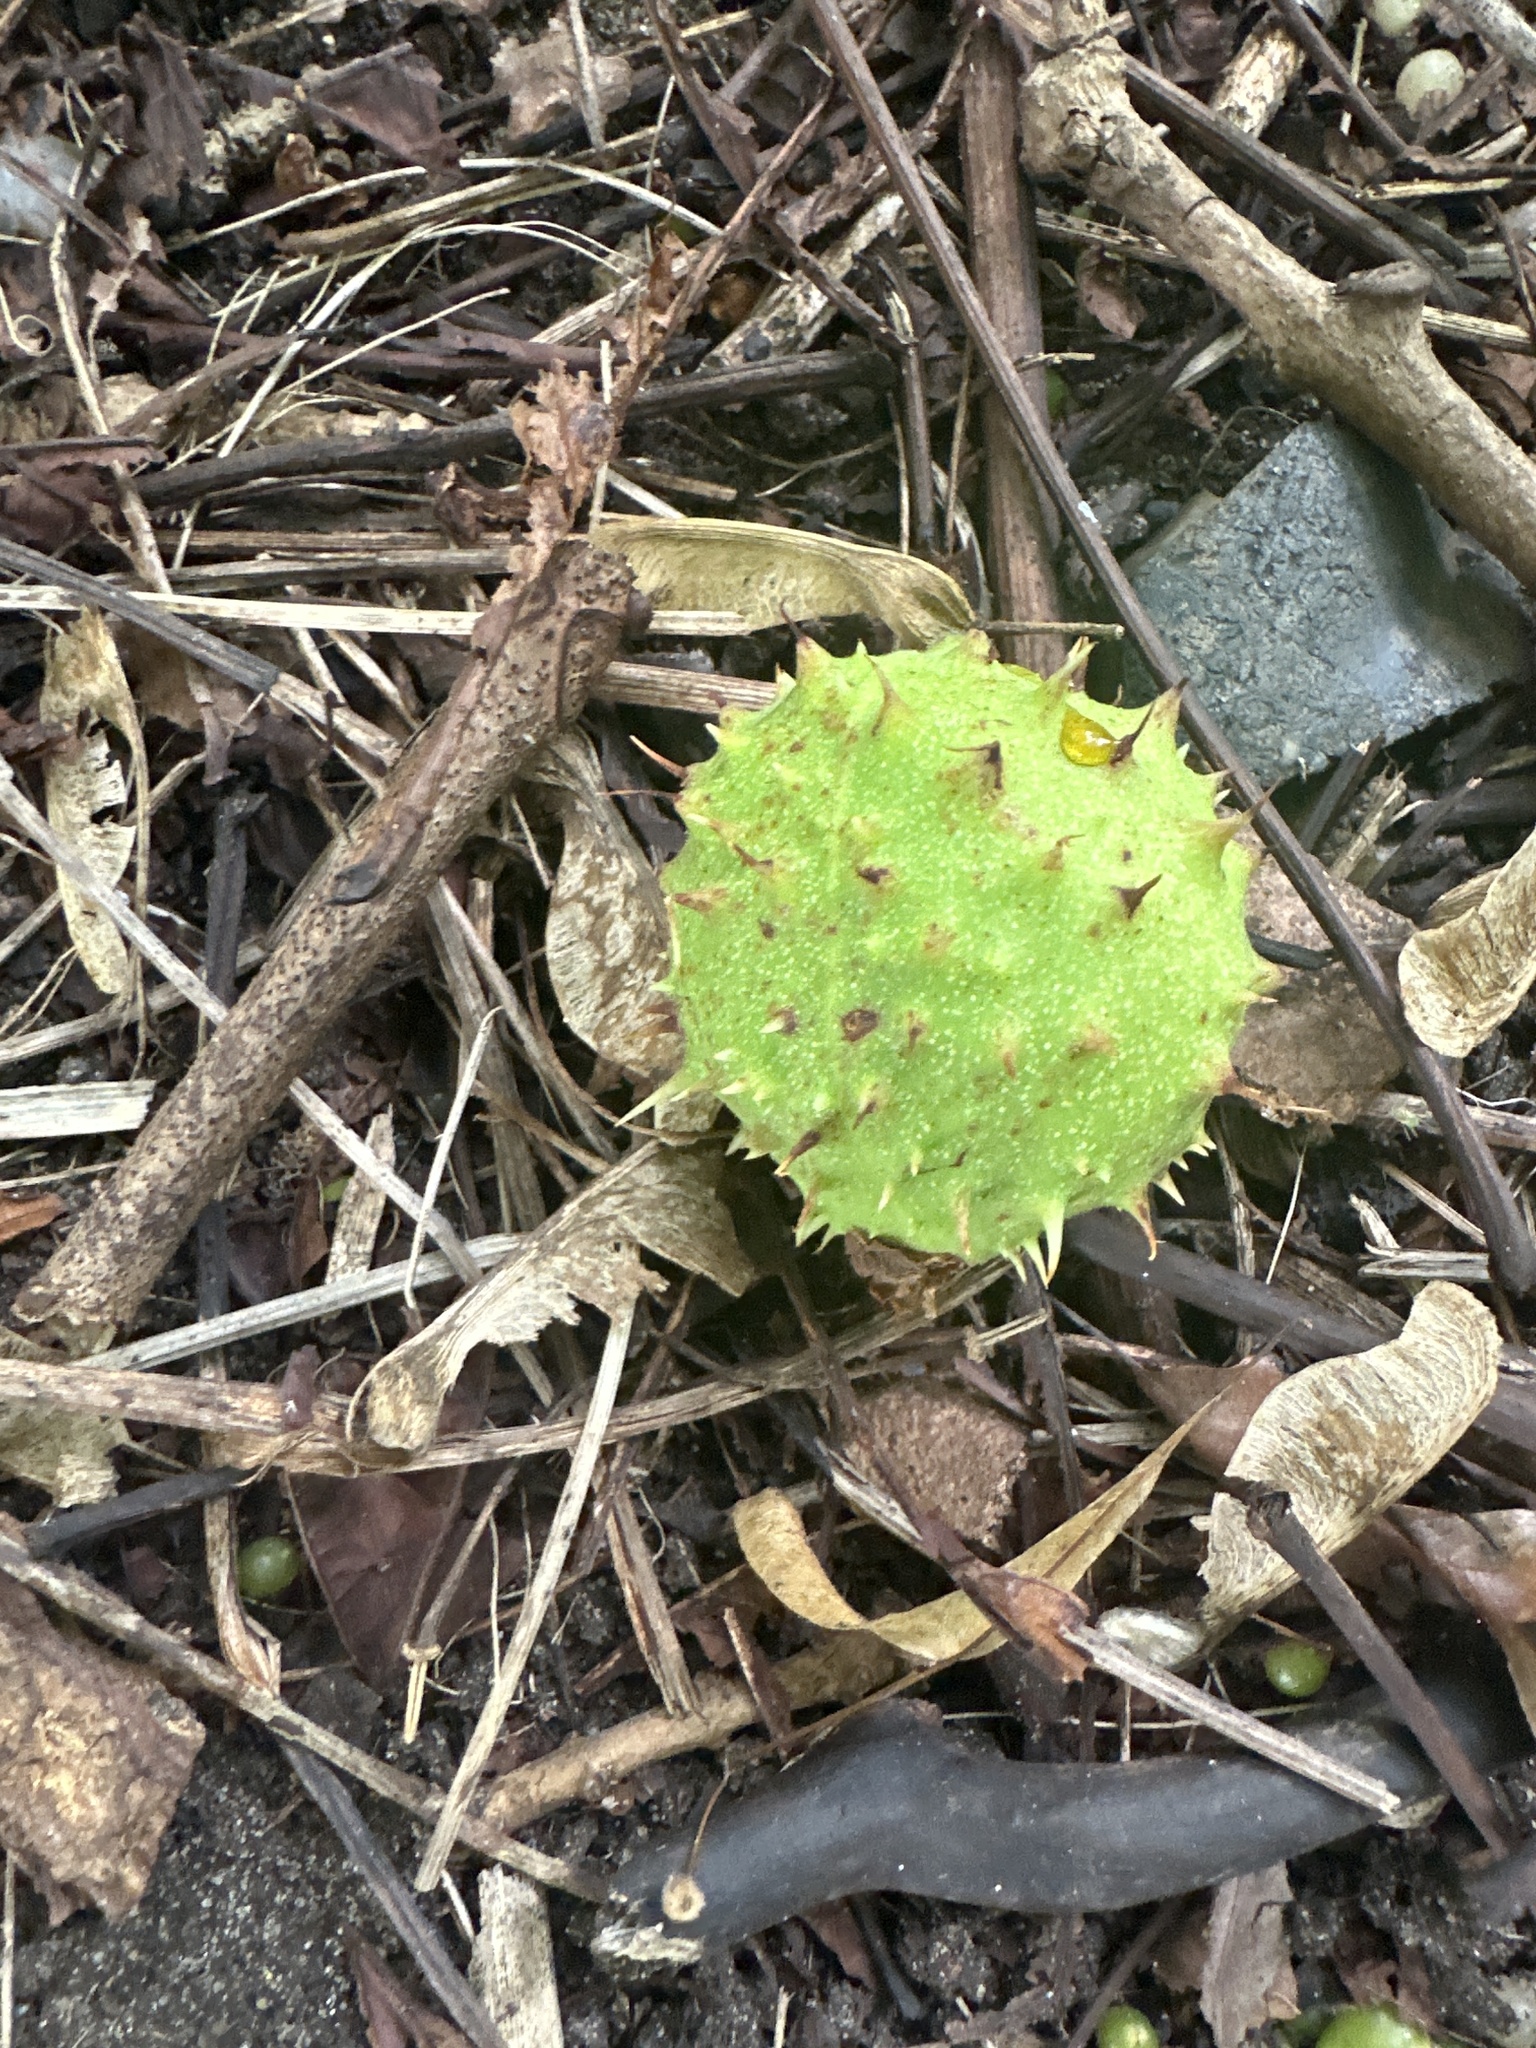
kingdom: Plantae
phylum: Tracheophyta
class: Magnoliopsida
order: Sapindales
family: Sapindaceae
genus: Aesculus
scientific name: Aesculus hippocastanum
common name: Horse-chestnut
